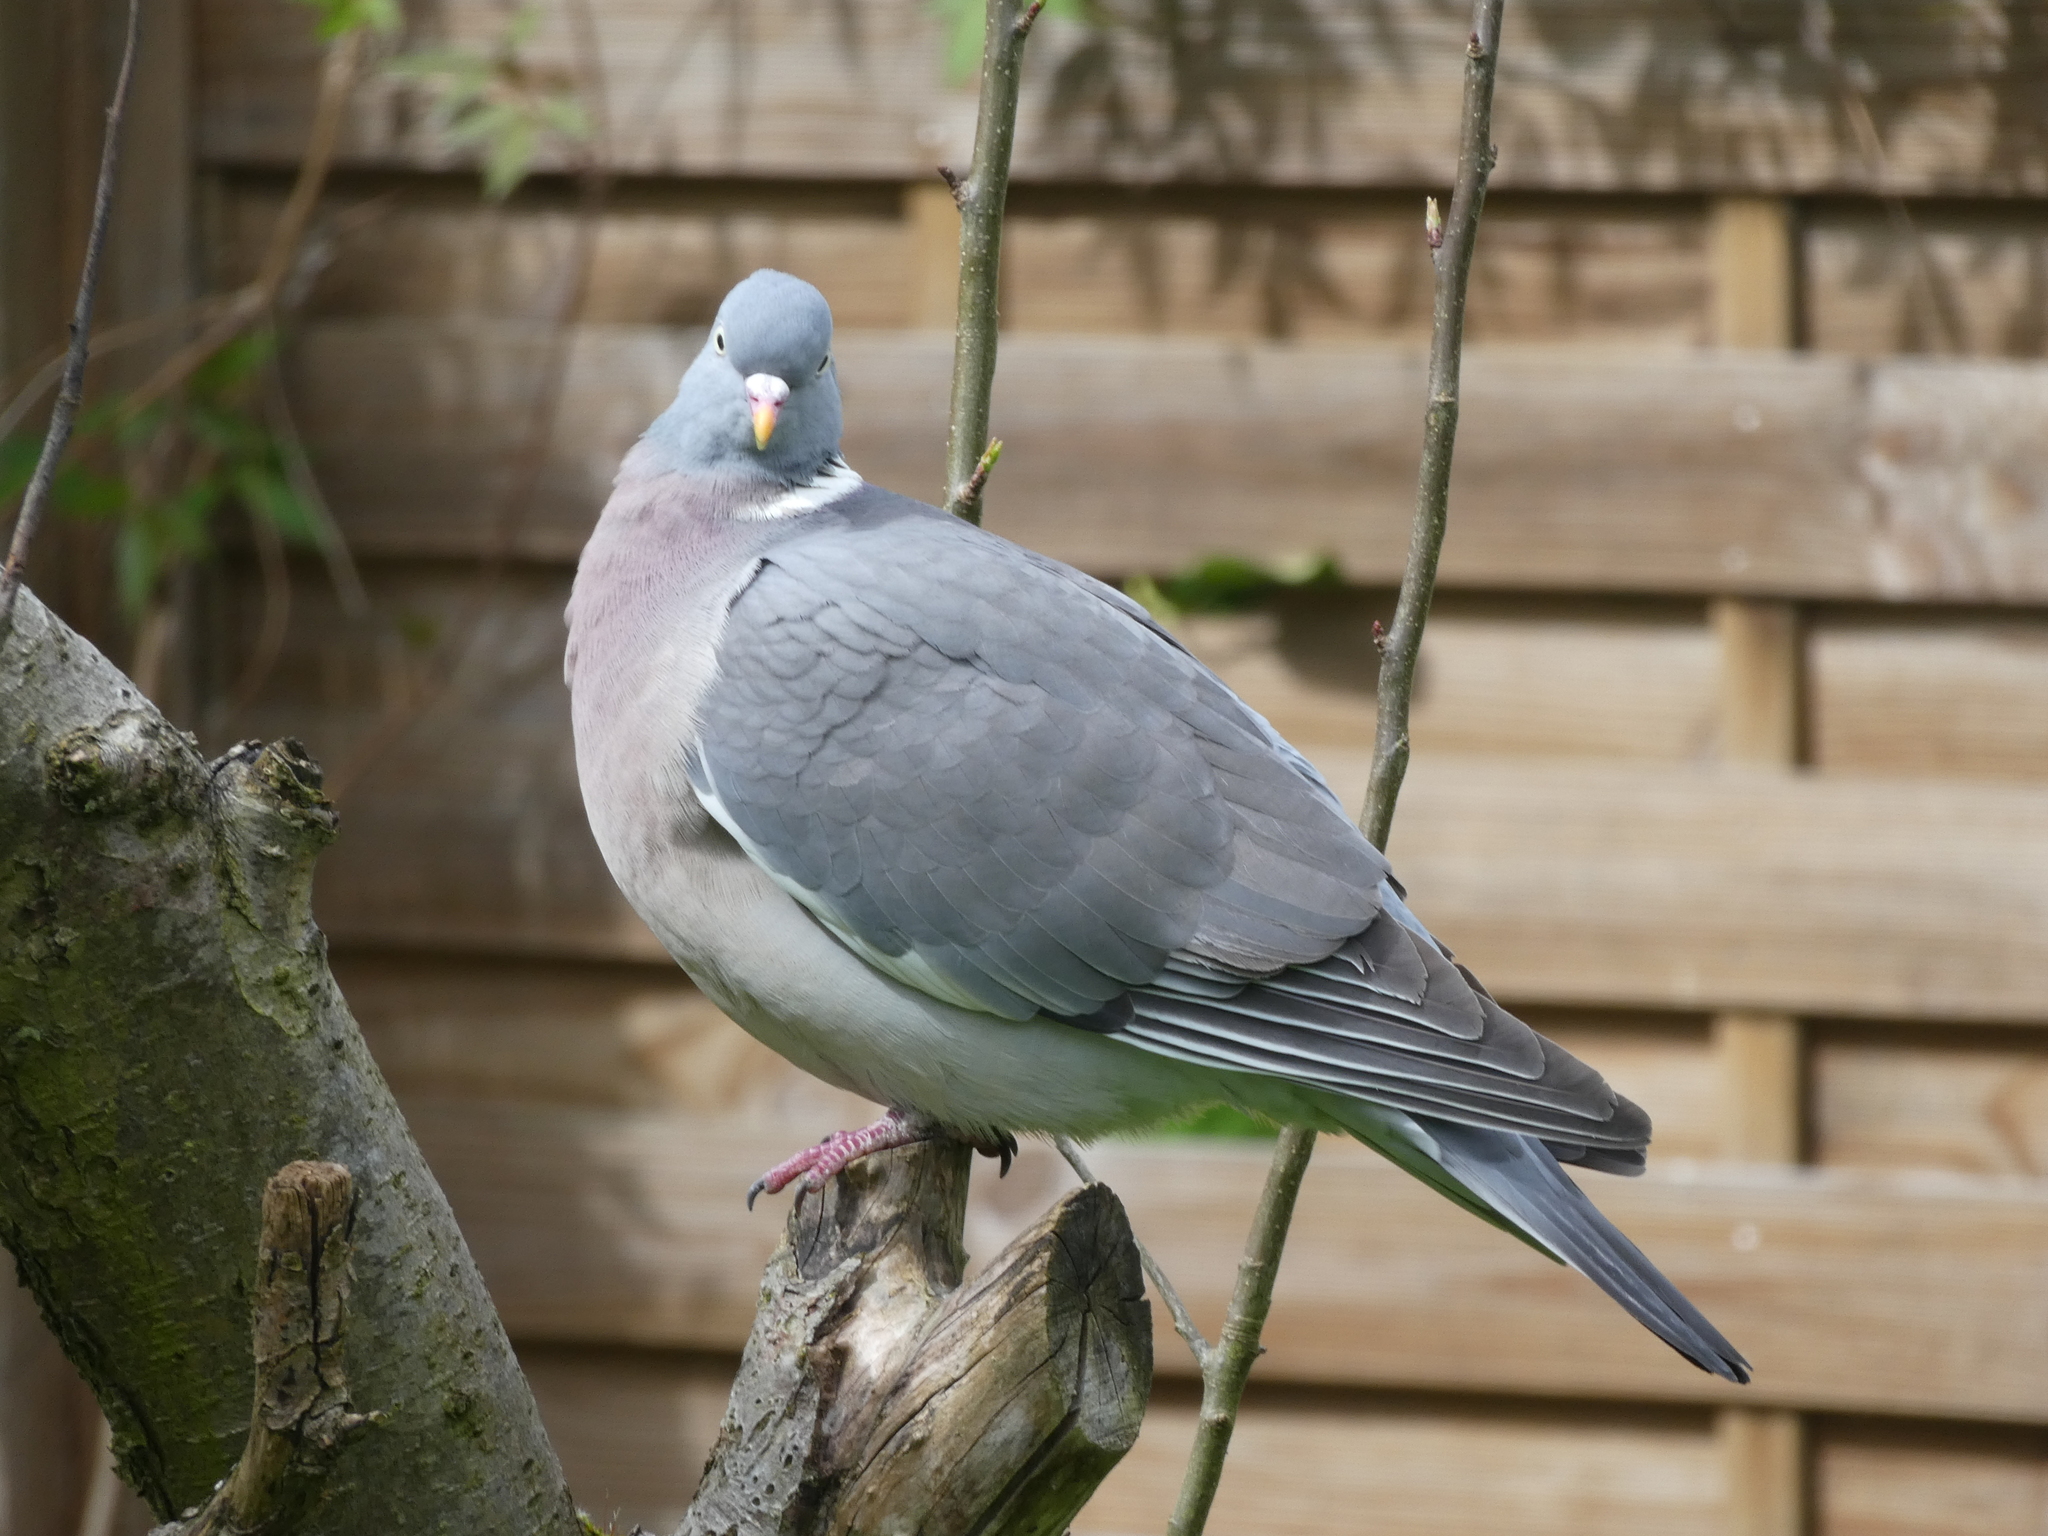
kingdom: Animalia
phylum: Chordata
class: Aves
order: Columbiformes
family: Columbidae
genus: Columba
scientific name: Columba palumbus
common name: Common wood pigeon
